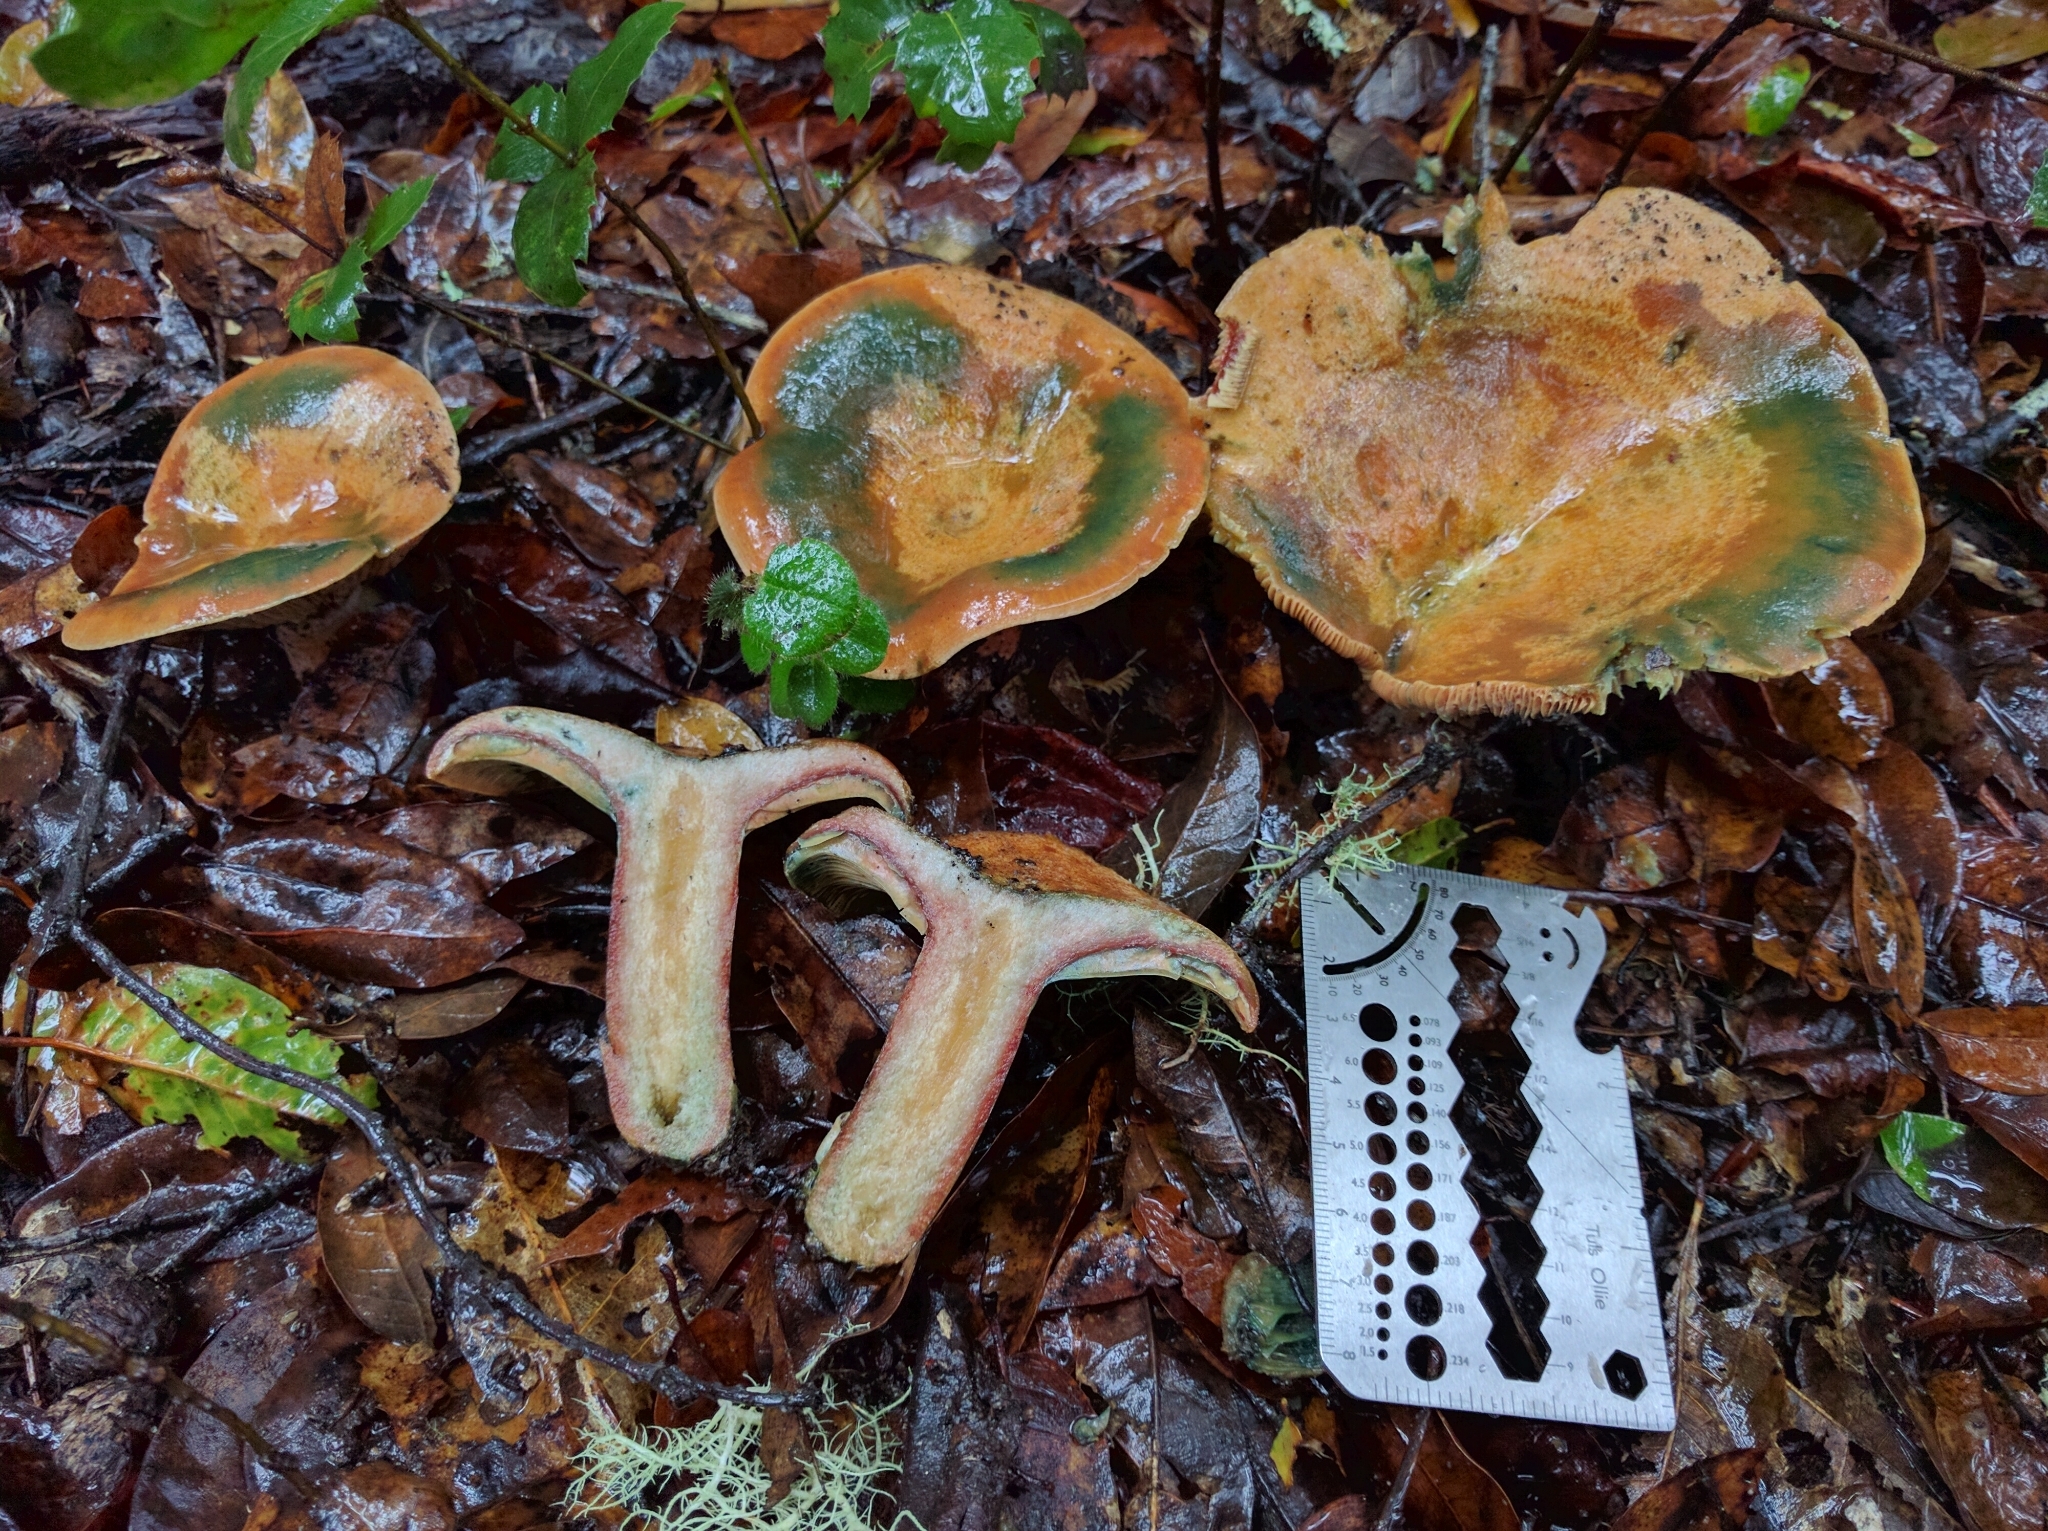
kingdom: Fungi
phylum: Basidiomycota
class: Agaricomycetes
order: Russulales
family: Russulaceae
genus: Lactarius
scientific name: Lactarius rubrilacteus
